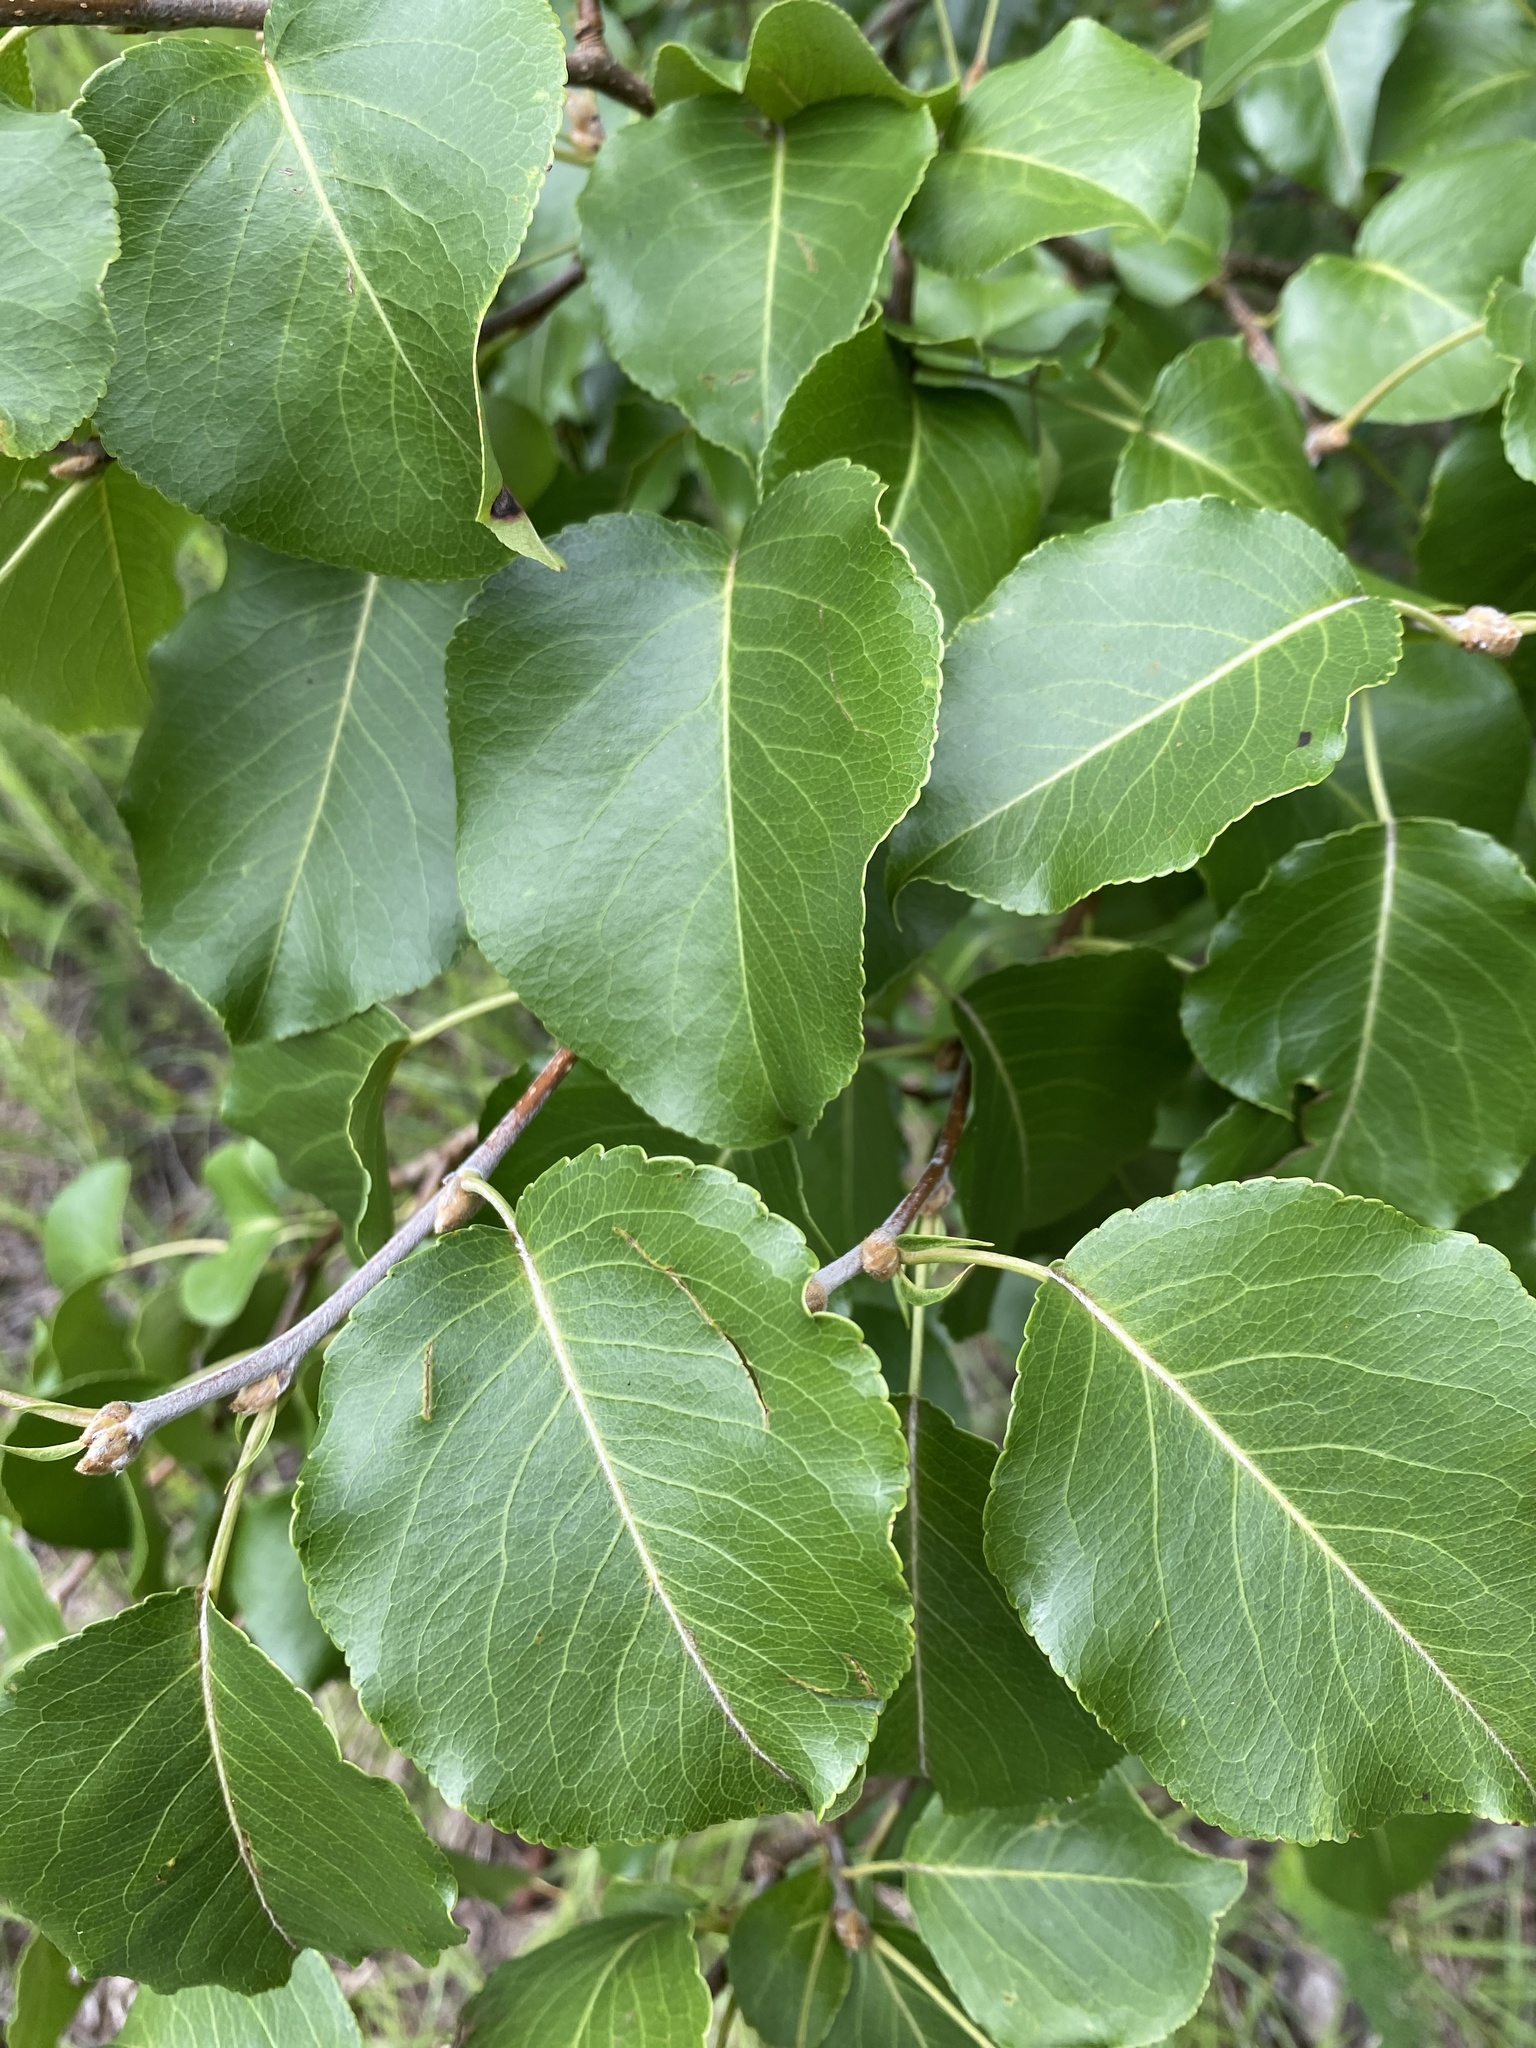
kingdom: Plantae
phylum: Tracheophyta
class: Magnoliopsida
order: Rosales
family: Rosaceae
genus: Pyrus
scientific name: Pyrus calleryana
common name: Callery pear
